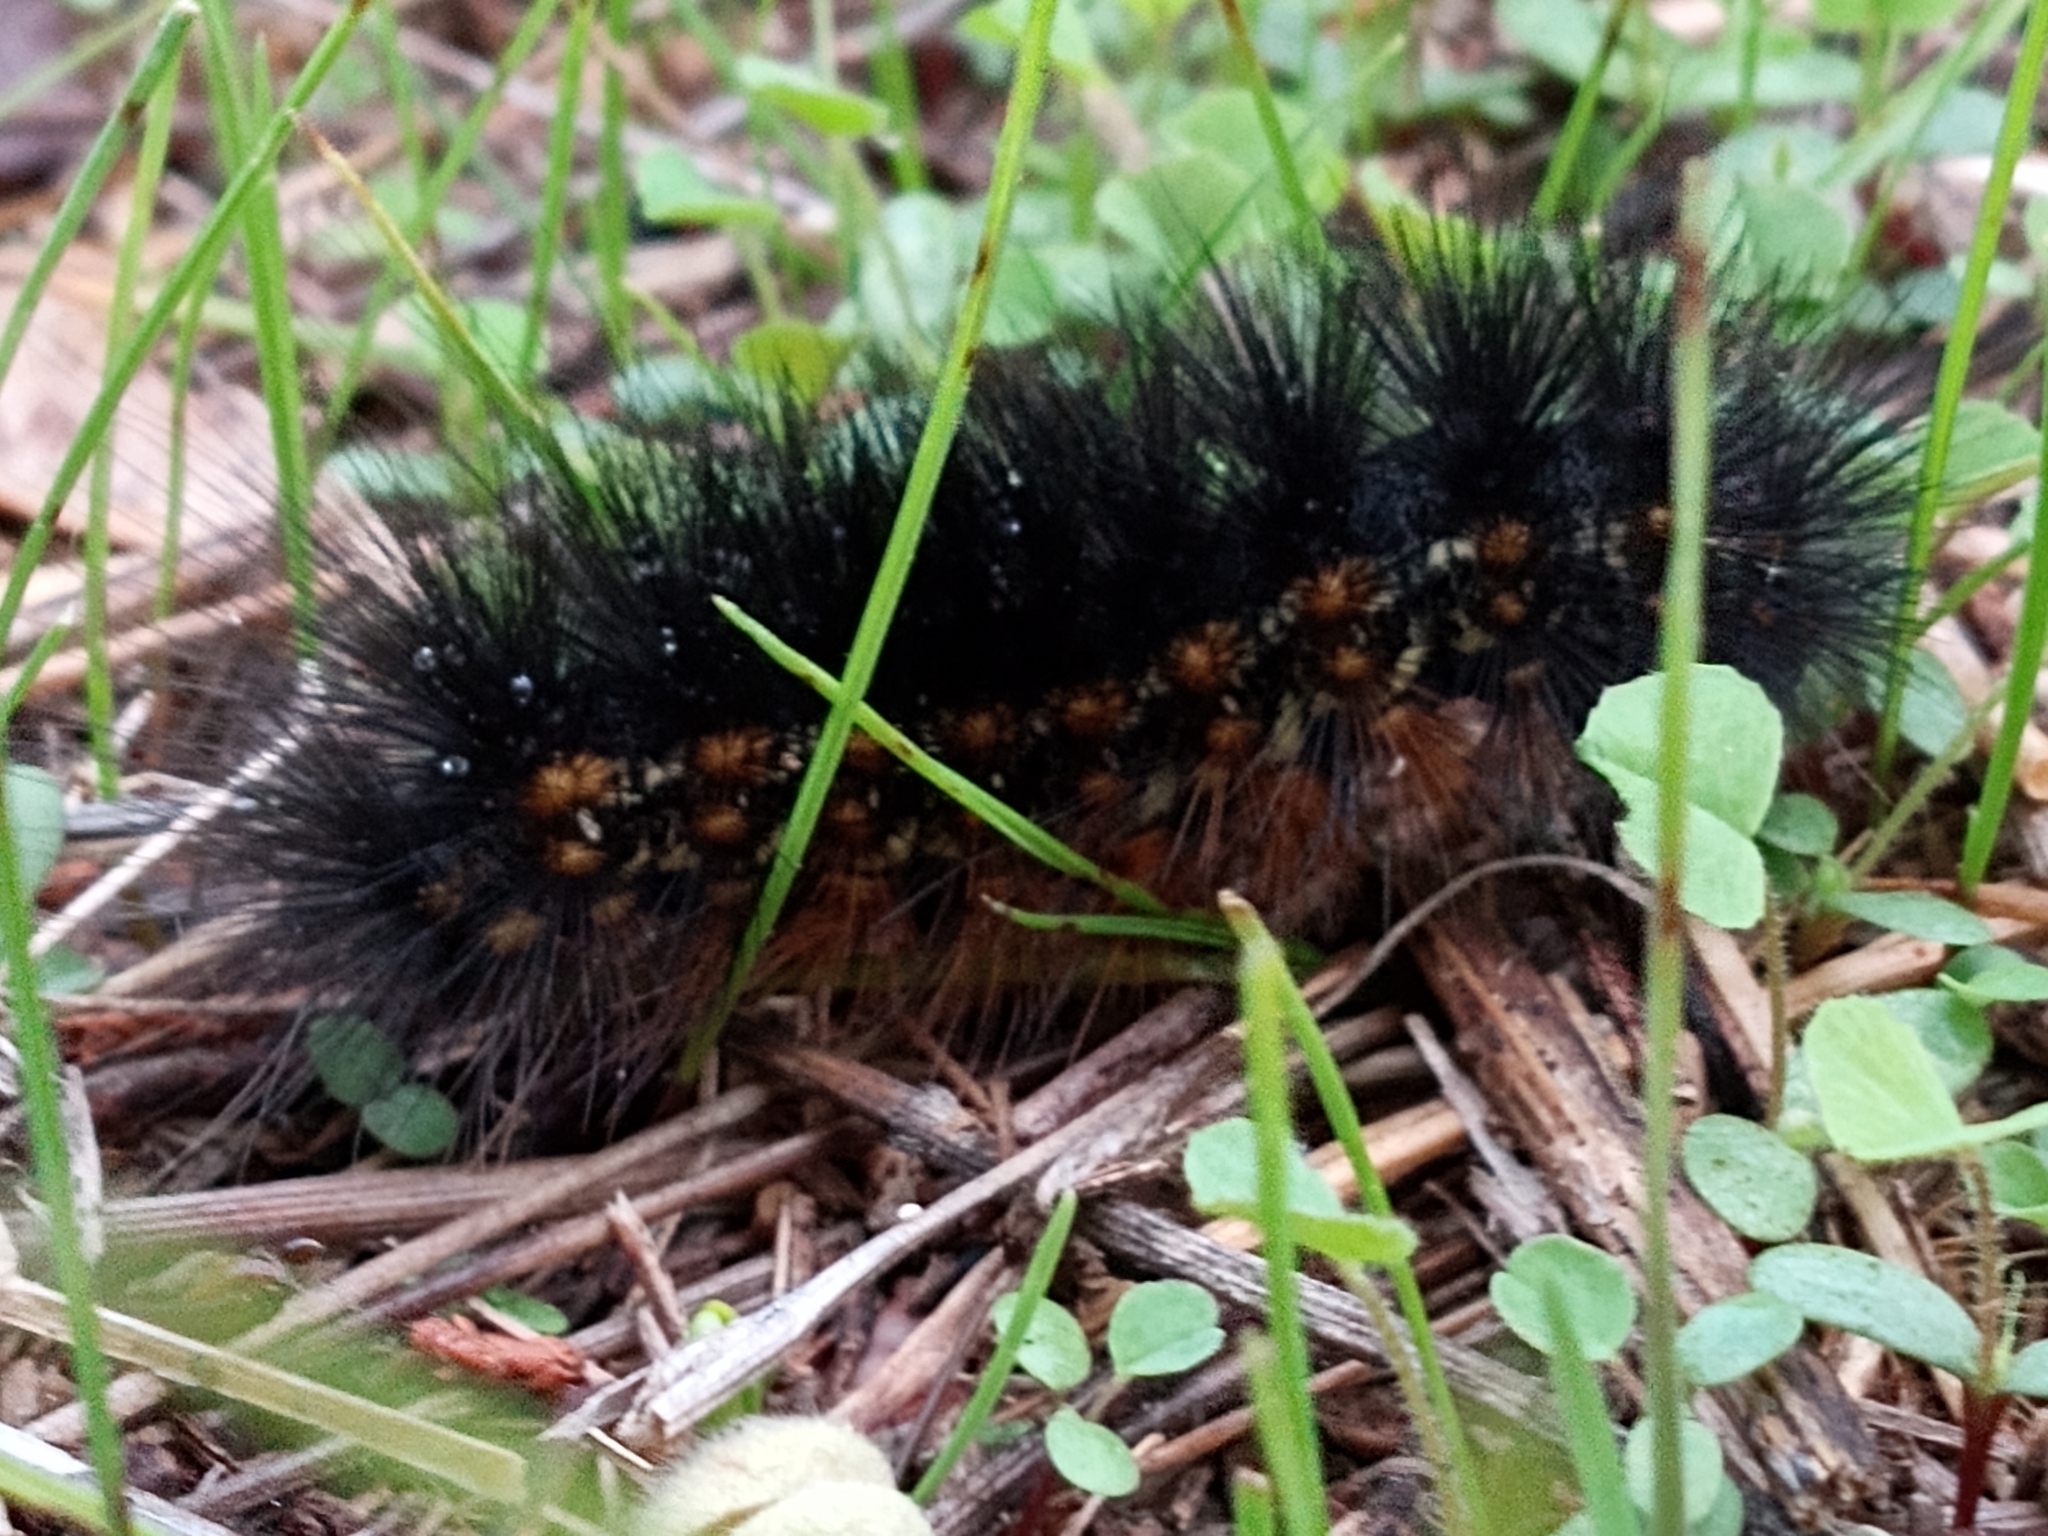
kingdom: Animalia
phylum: Arthropoda
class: Insecta
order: Lepidoptera
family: Erebidae
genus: Estigmene
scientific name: Estigmene acrea
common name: Salt marsh moth
